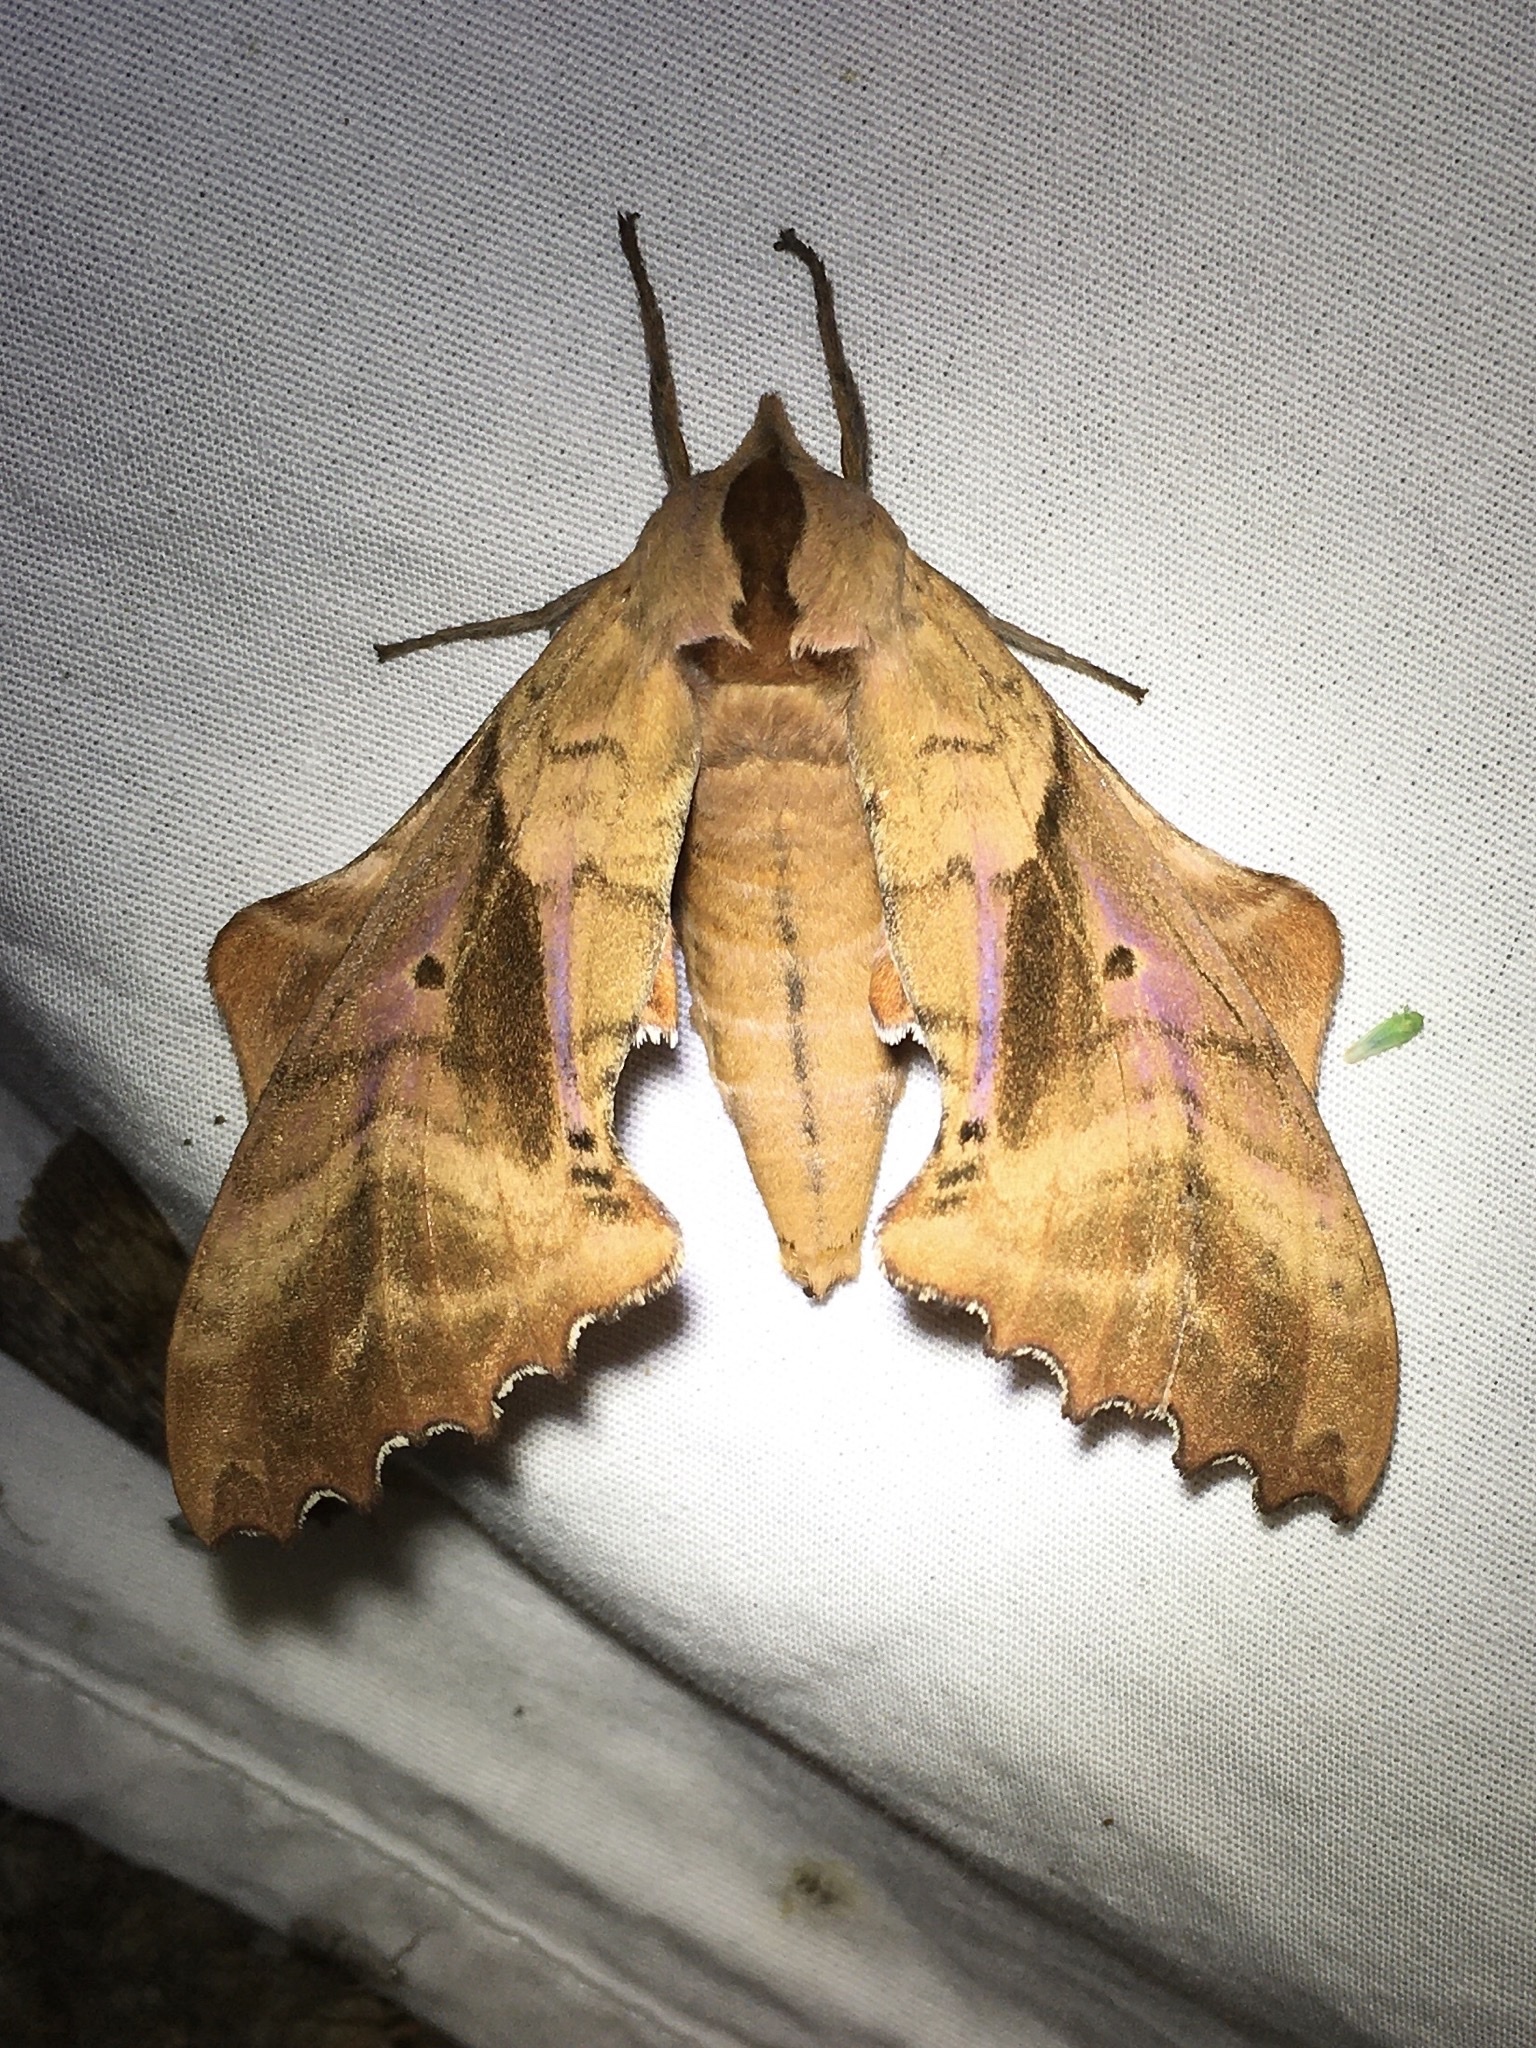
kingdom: Animalia
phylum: Arthropoda
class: Insecta
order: Lepidoptera
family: Sphingidae
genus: Paonias
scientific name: Paonias excaecata
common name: Blind-eyed sphinx
